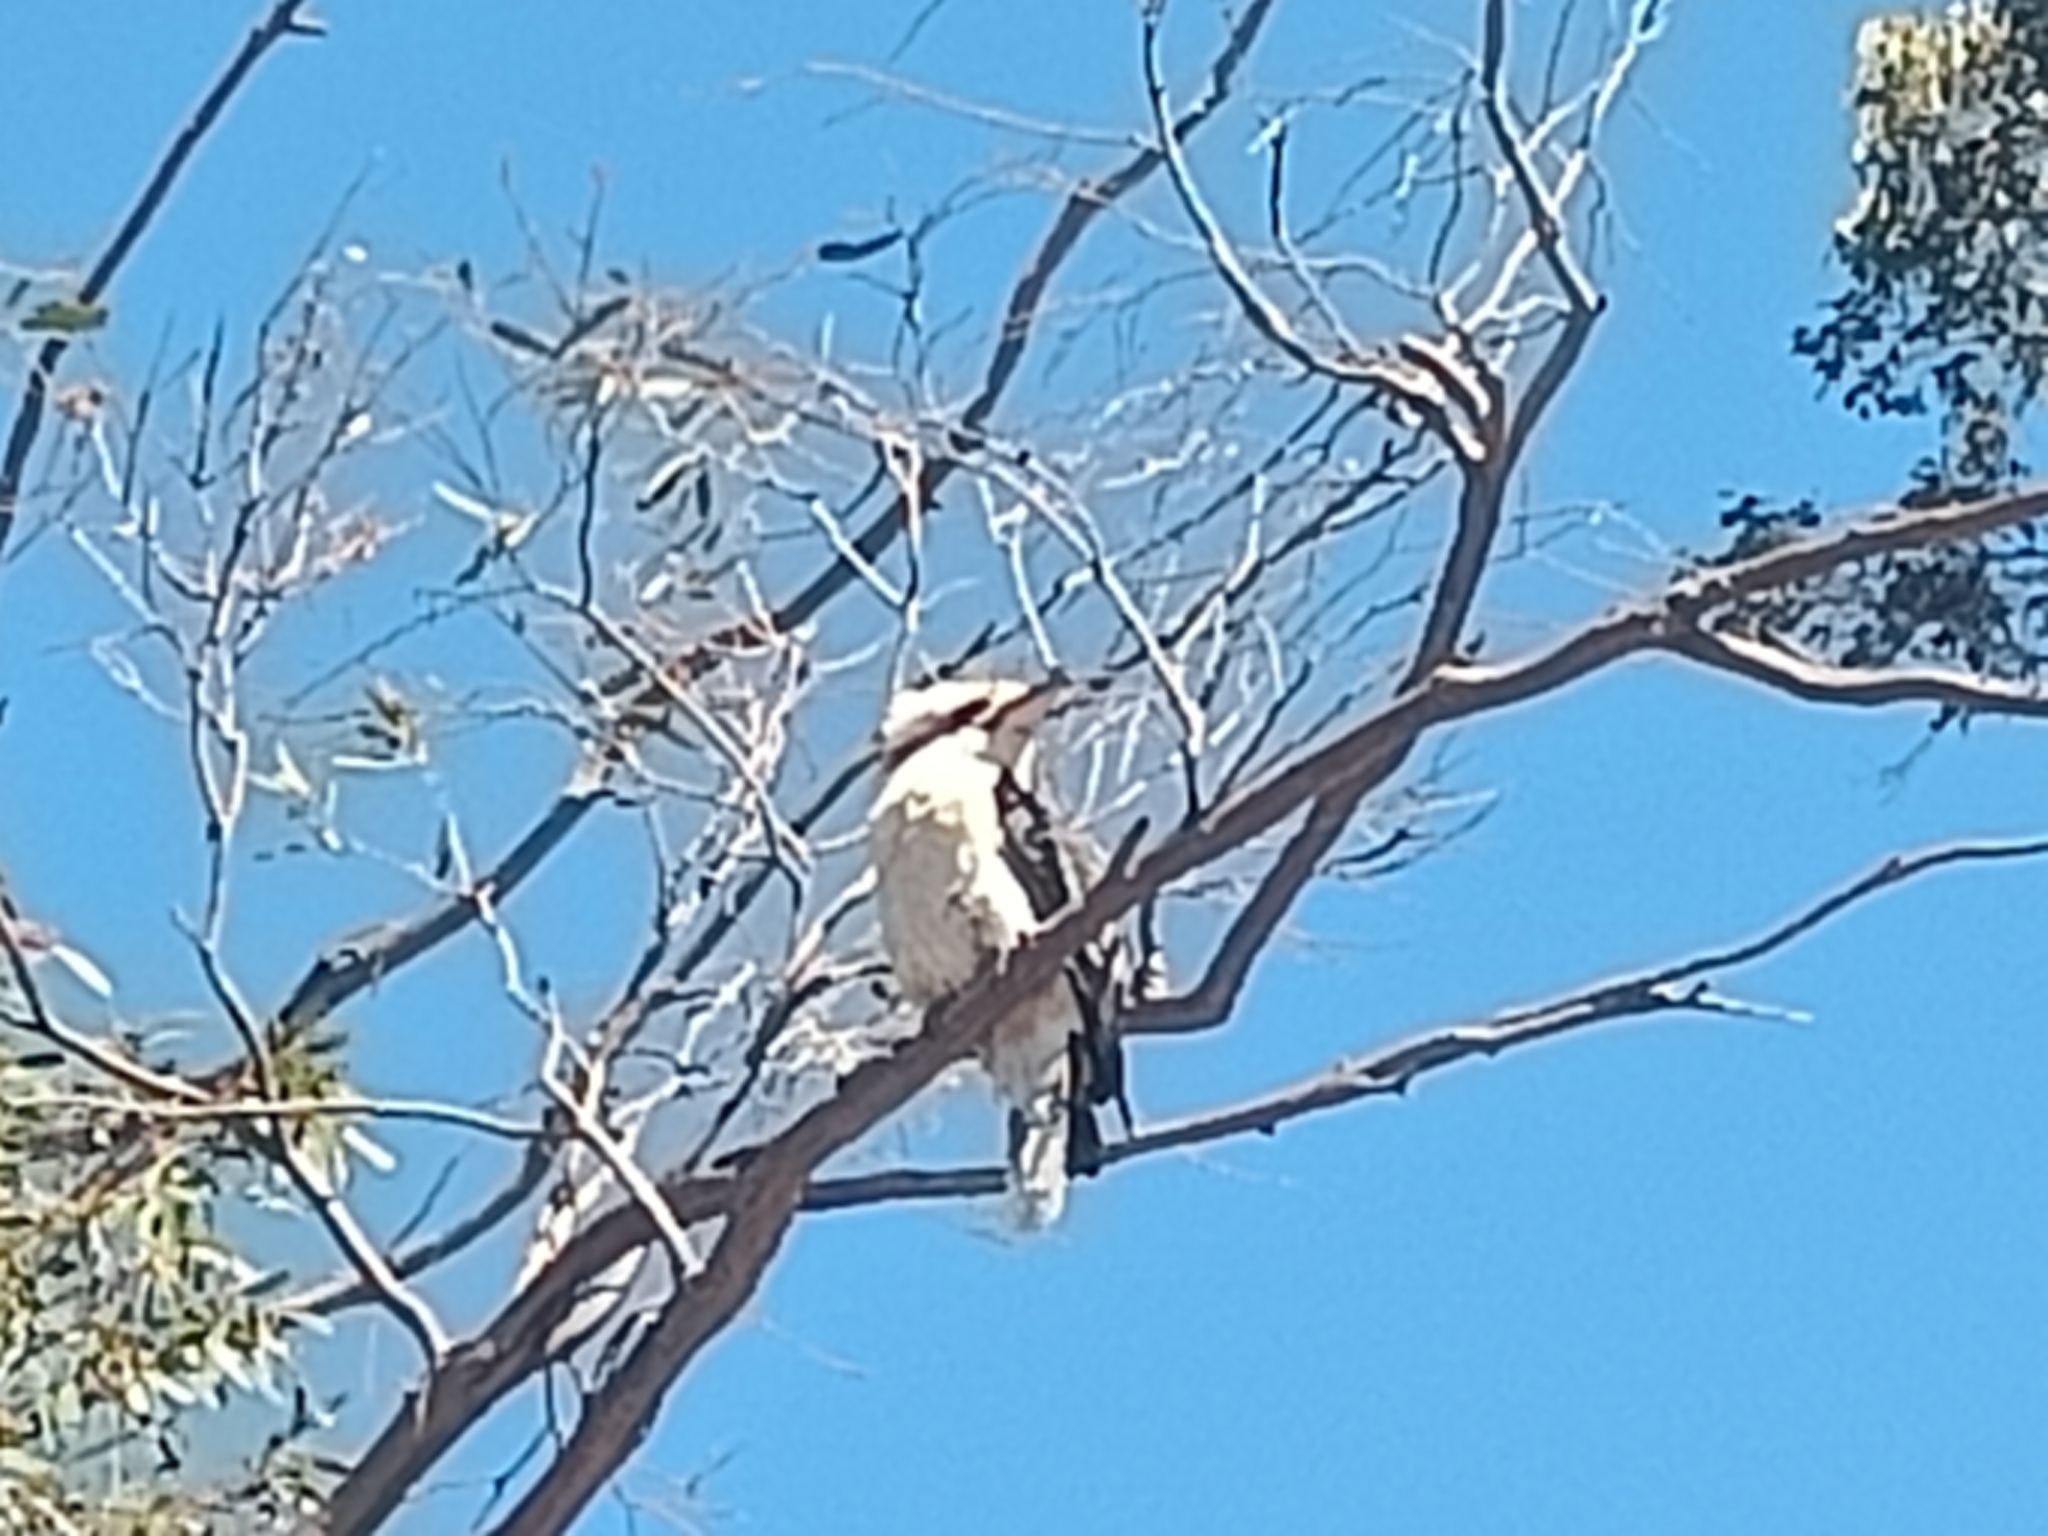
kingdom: Animalia
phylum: Chordata
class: Aves
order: Coraciiformes
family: Alcedinidae
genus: Dacelo
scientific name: Dacelo novaeguineae
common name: Laughing kookaburra
